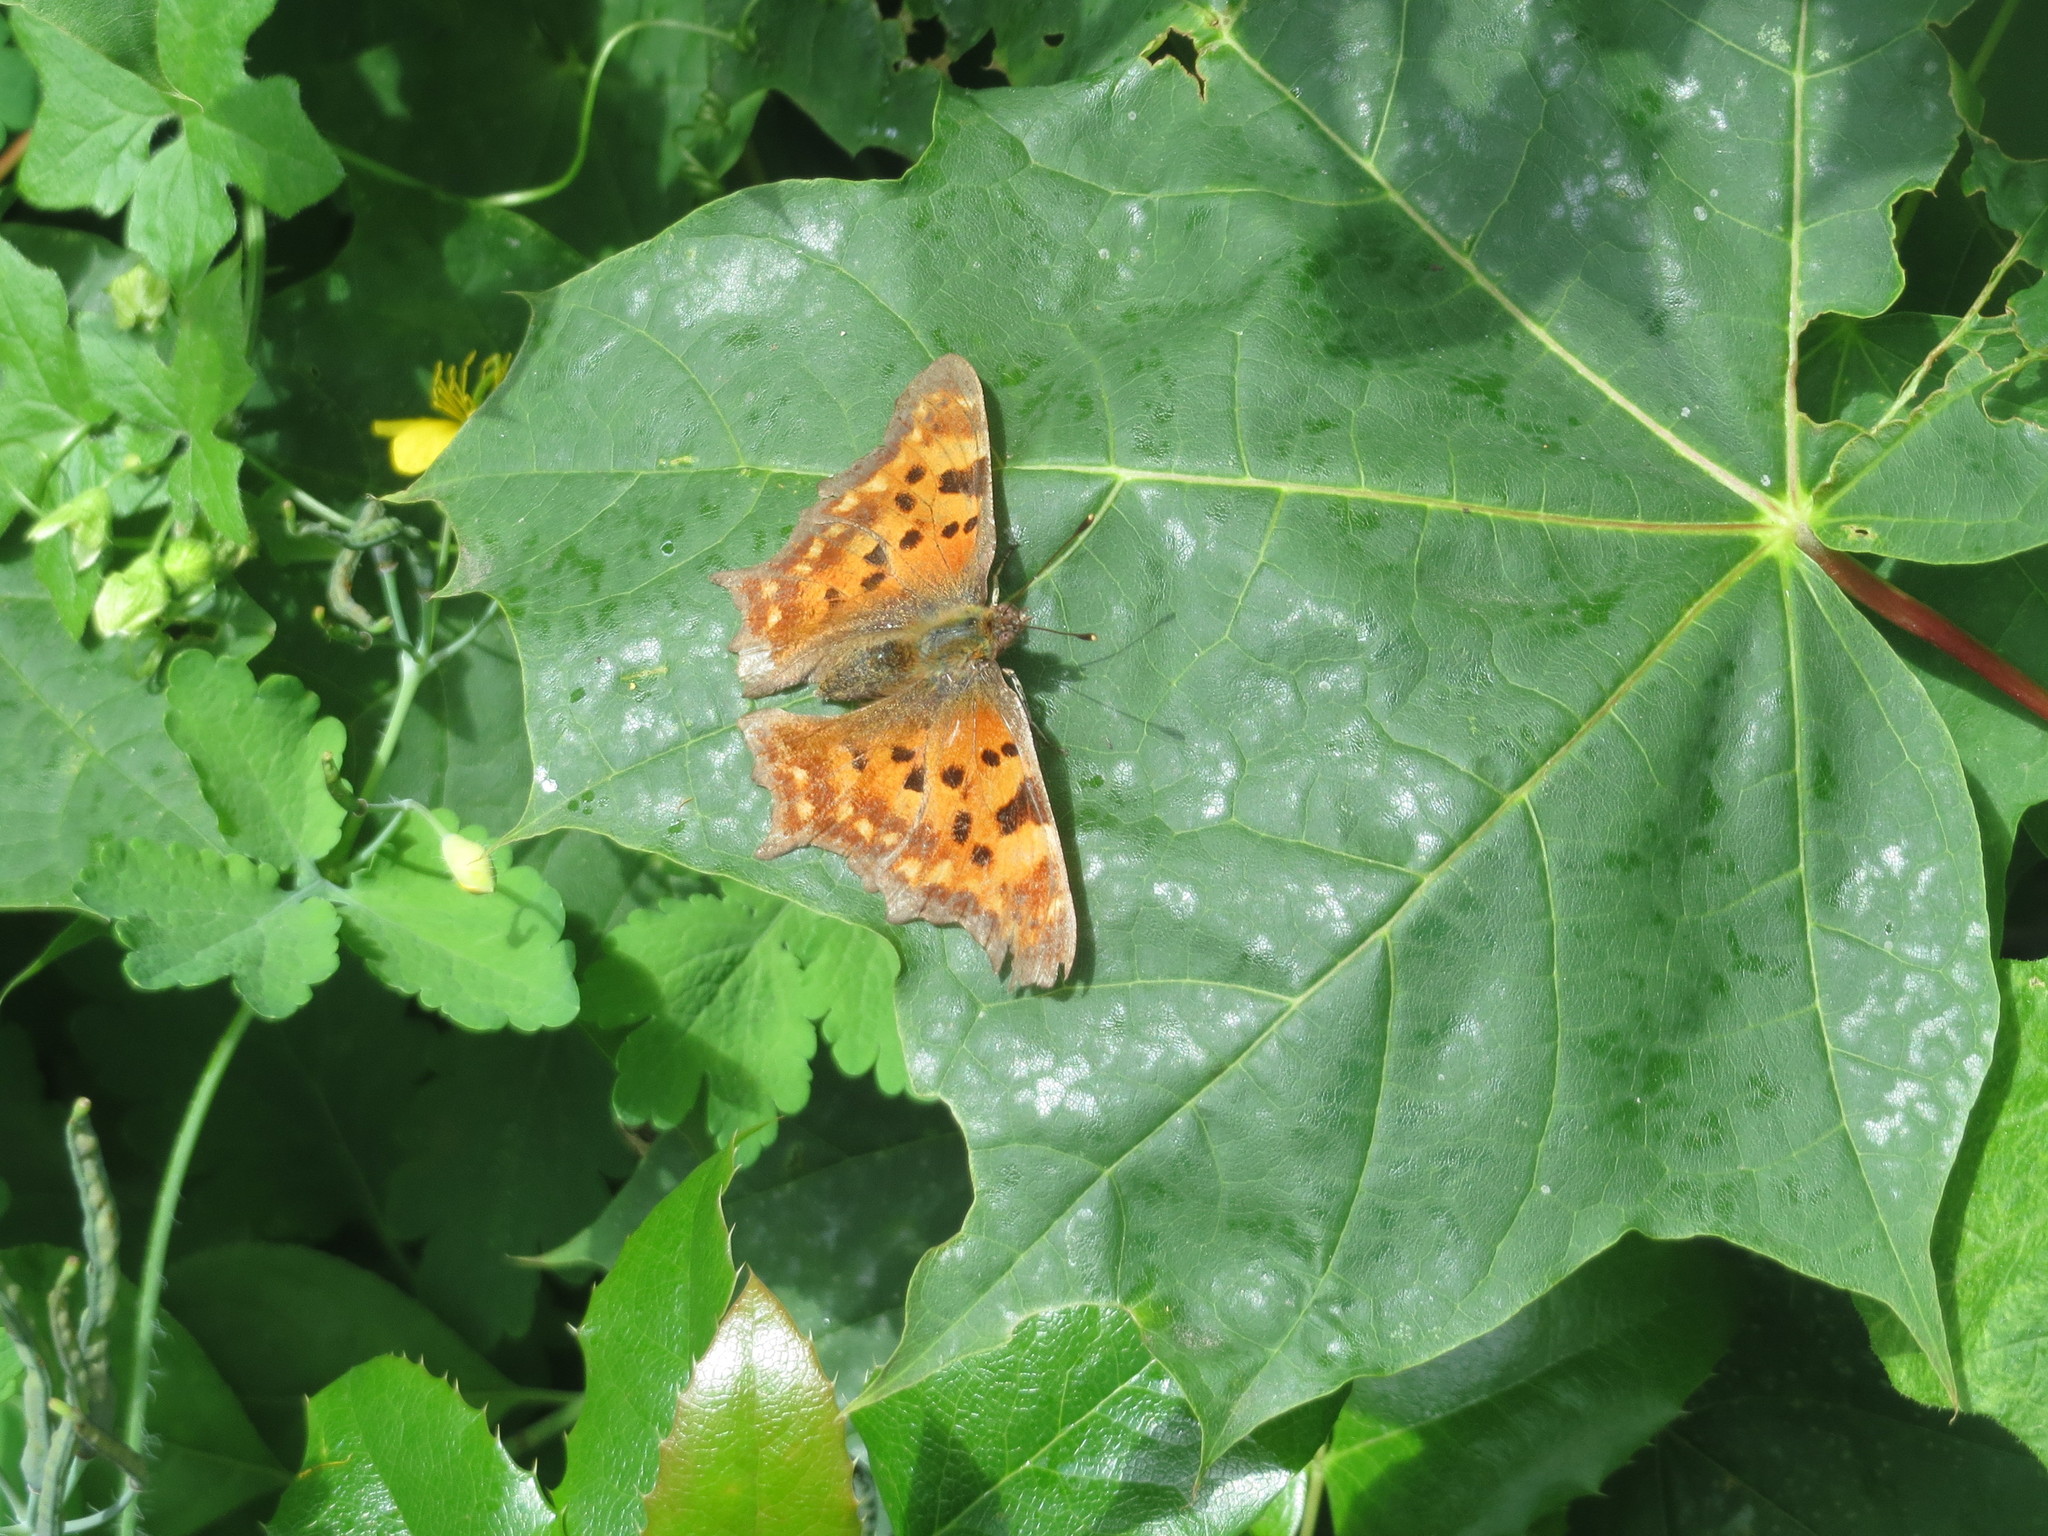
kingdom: Animalia
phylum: Arthropoda
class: Insecta
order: Lepidoptera
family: Nymphalidae
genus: Polygonia
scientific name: Polygonia c-album
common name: Comma
